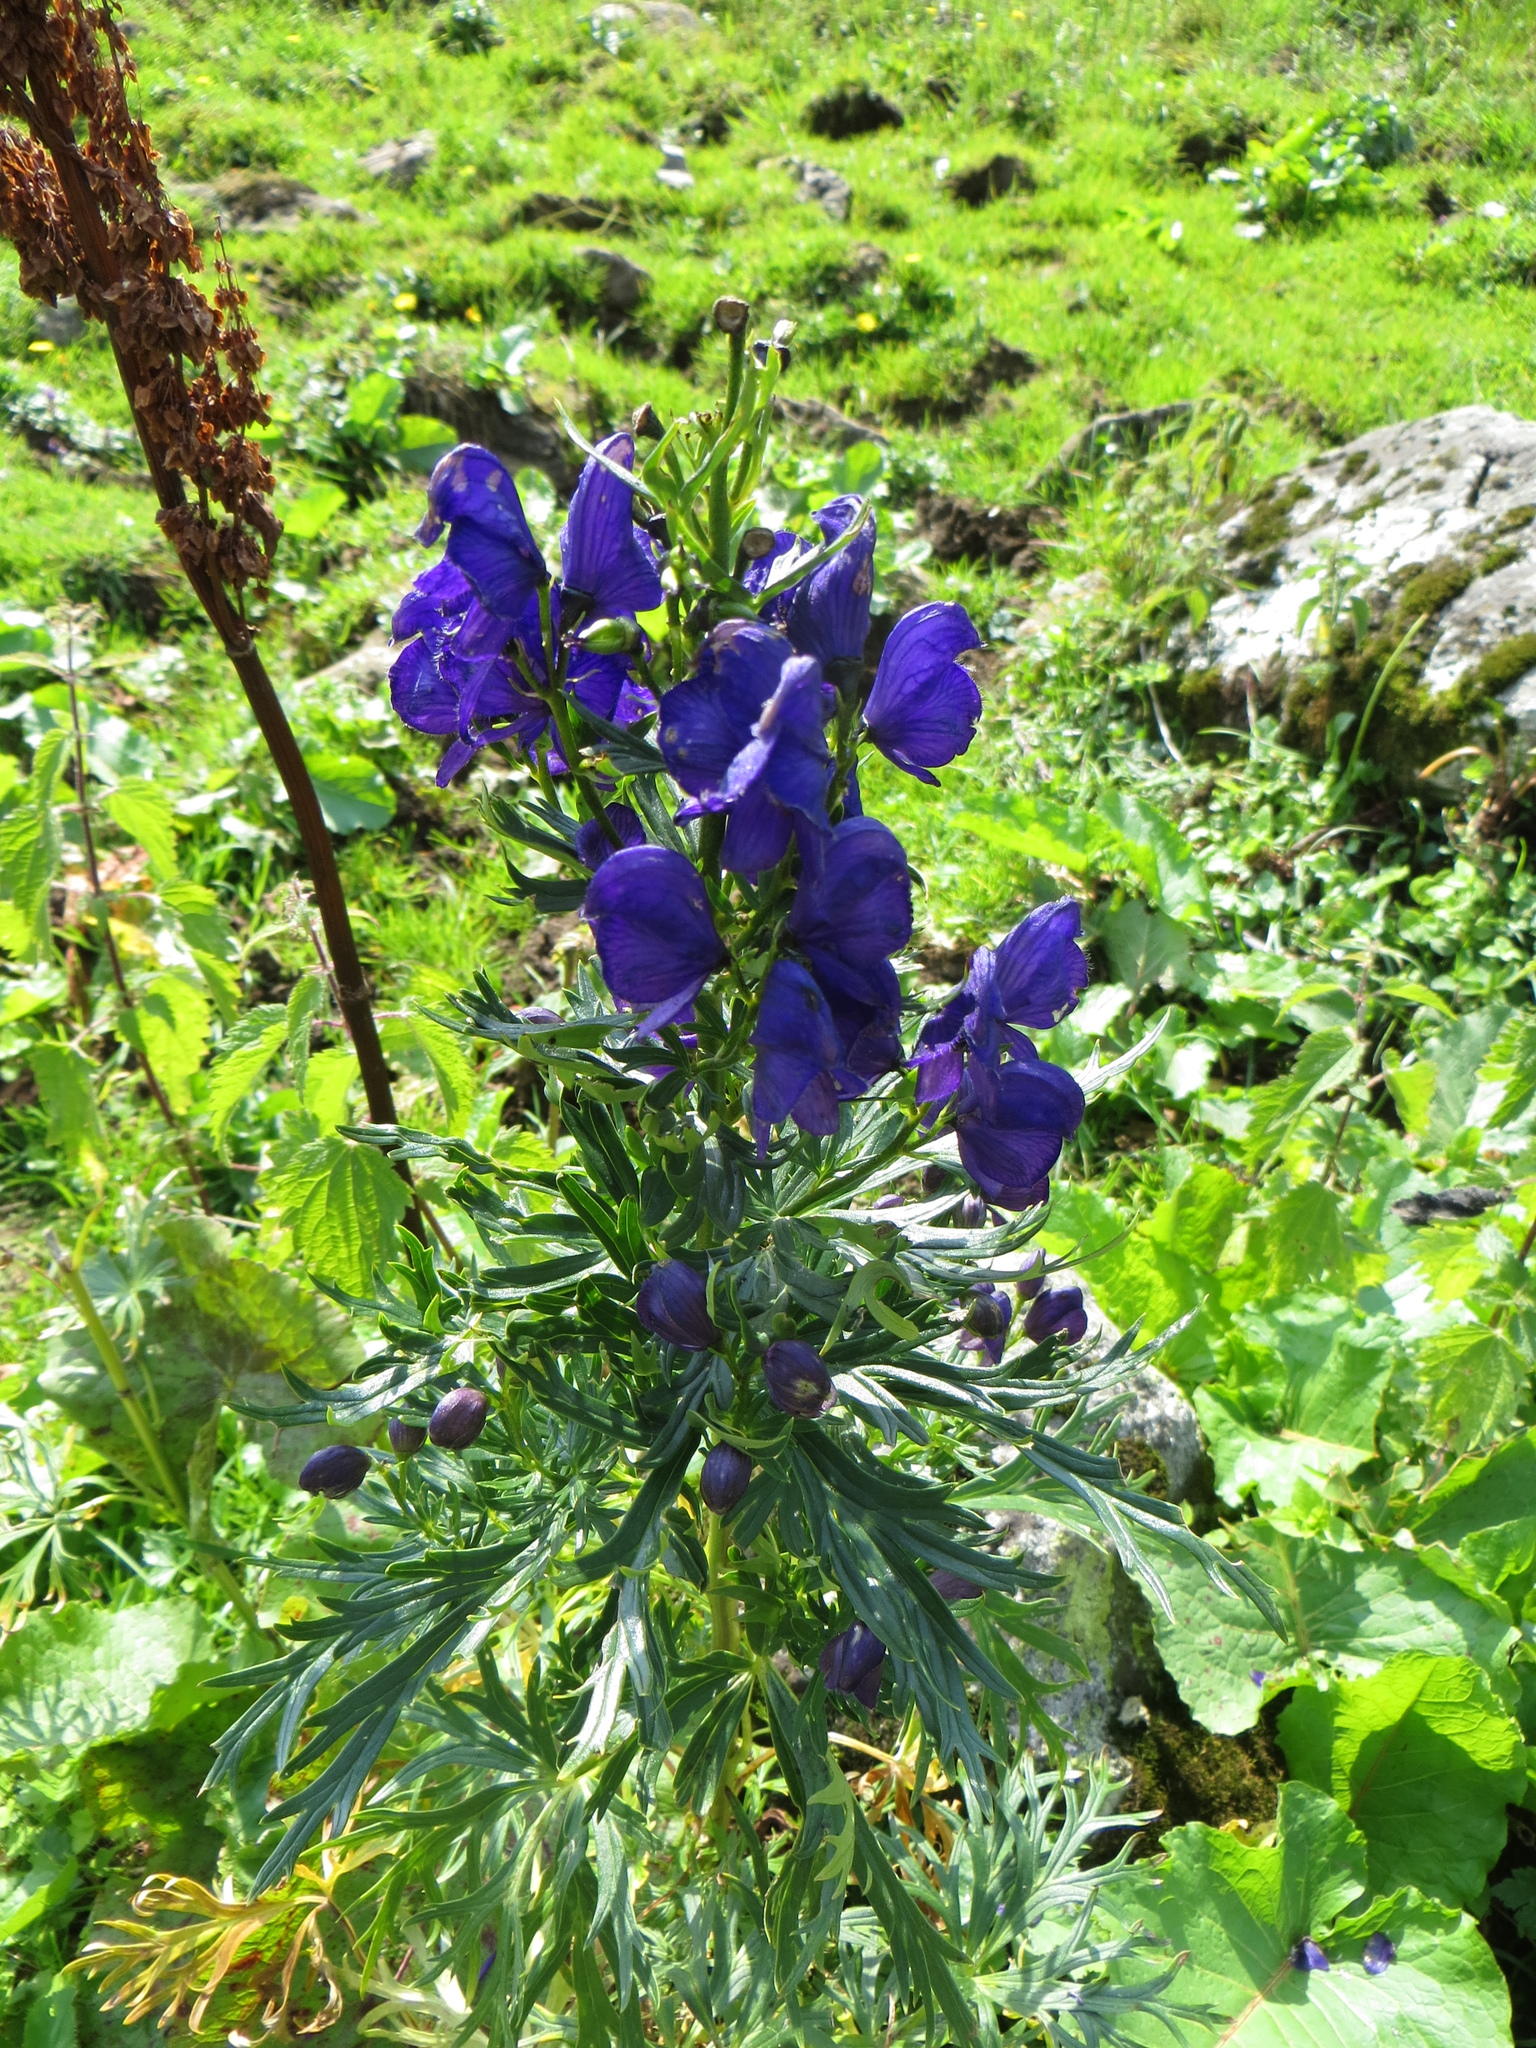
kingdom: Plantae
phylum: Tracheophyta
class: Magnoliopsida
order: Ranunculales
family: Ranunculaceae
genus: Aconitum
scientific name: Aconitum napellus
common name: Garden monkshood
